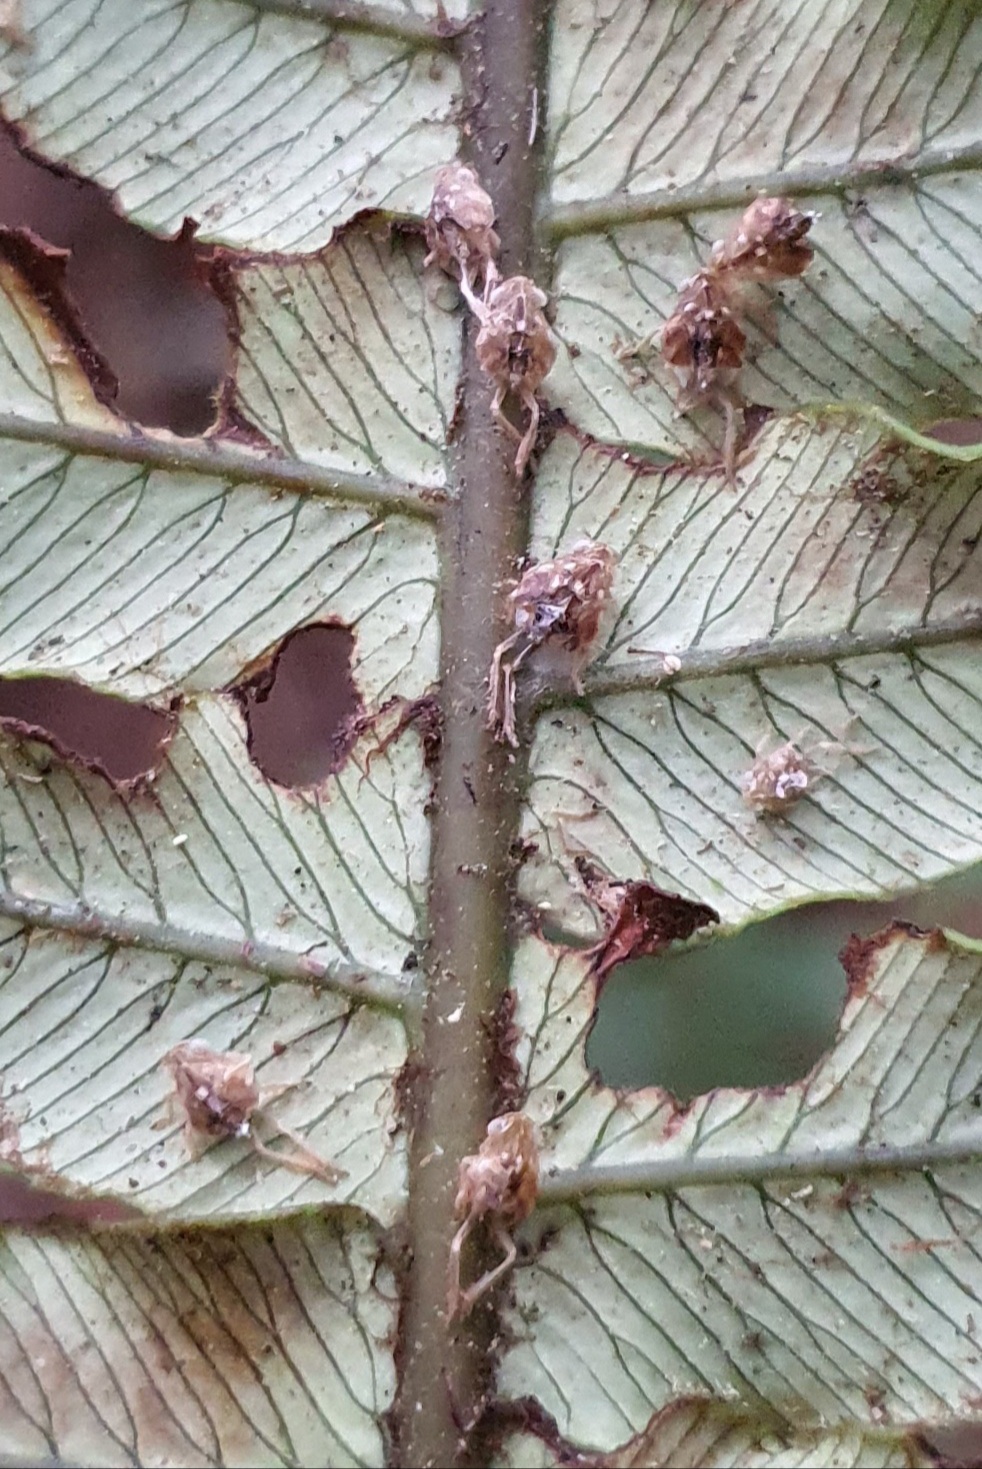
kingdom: Animalia
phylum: Arthropoda
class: Insecta
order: Hemiptera
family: Ricaniidae
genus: Scolypopa
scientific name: Scolypopa australis
